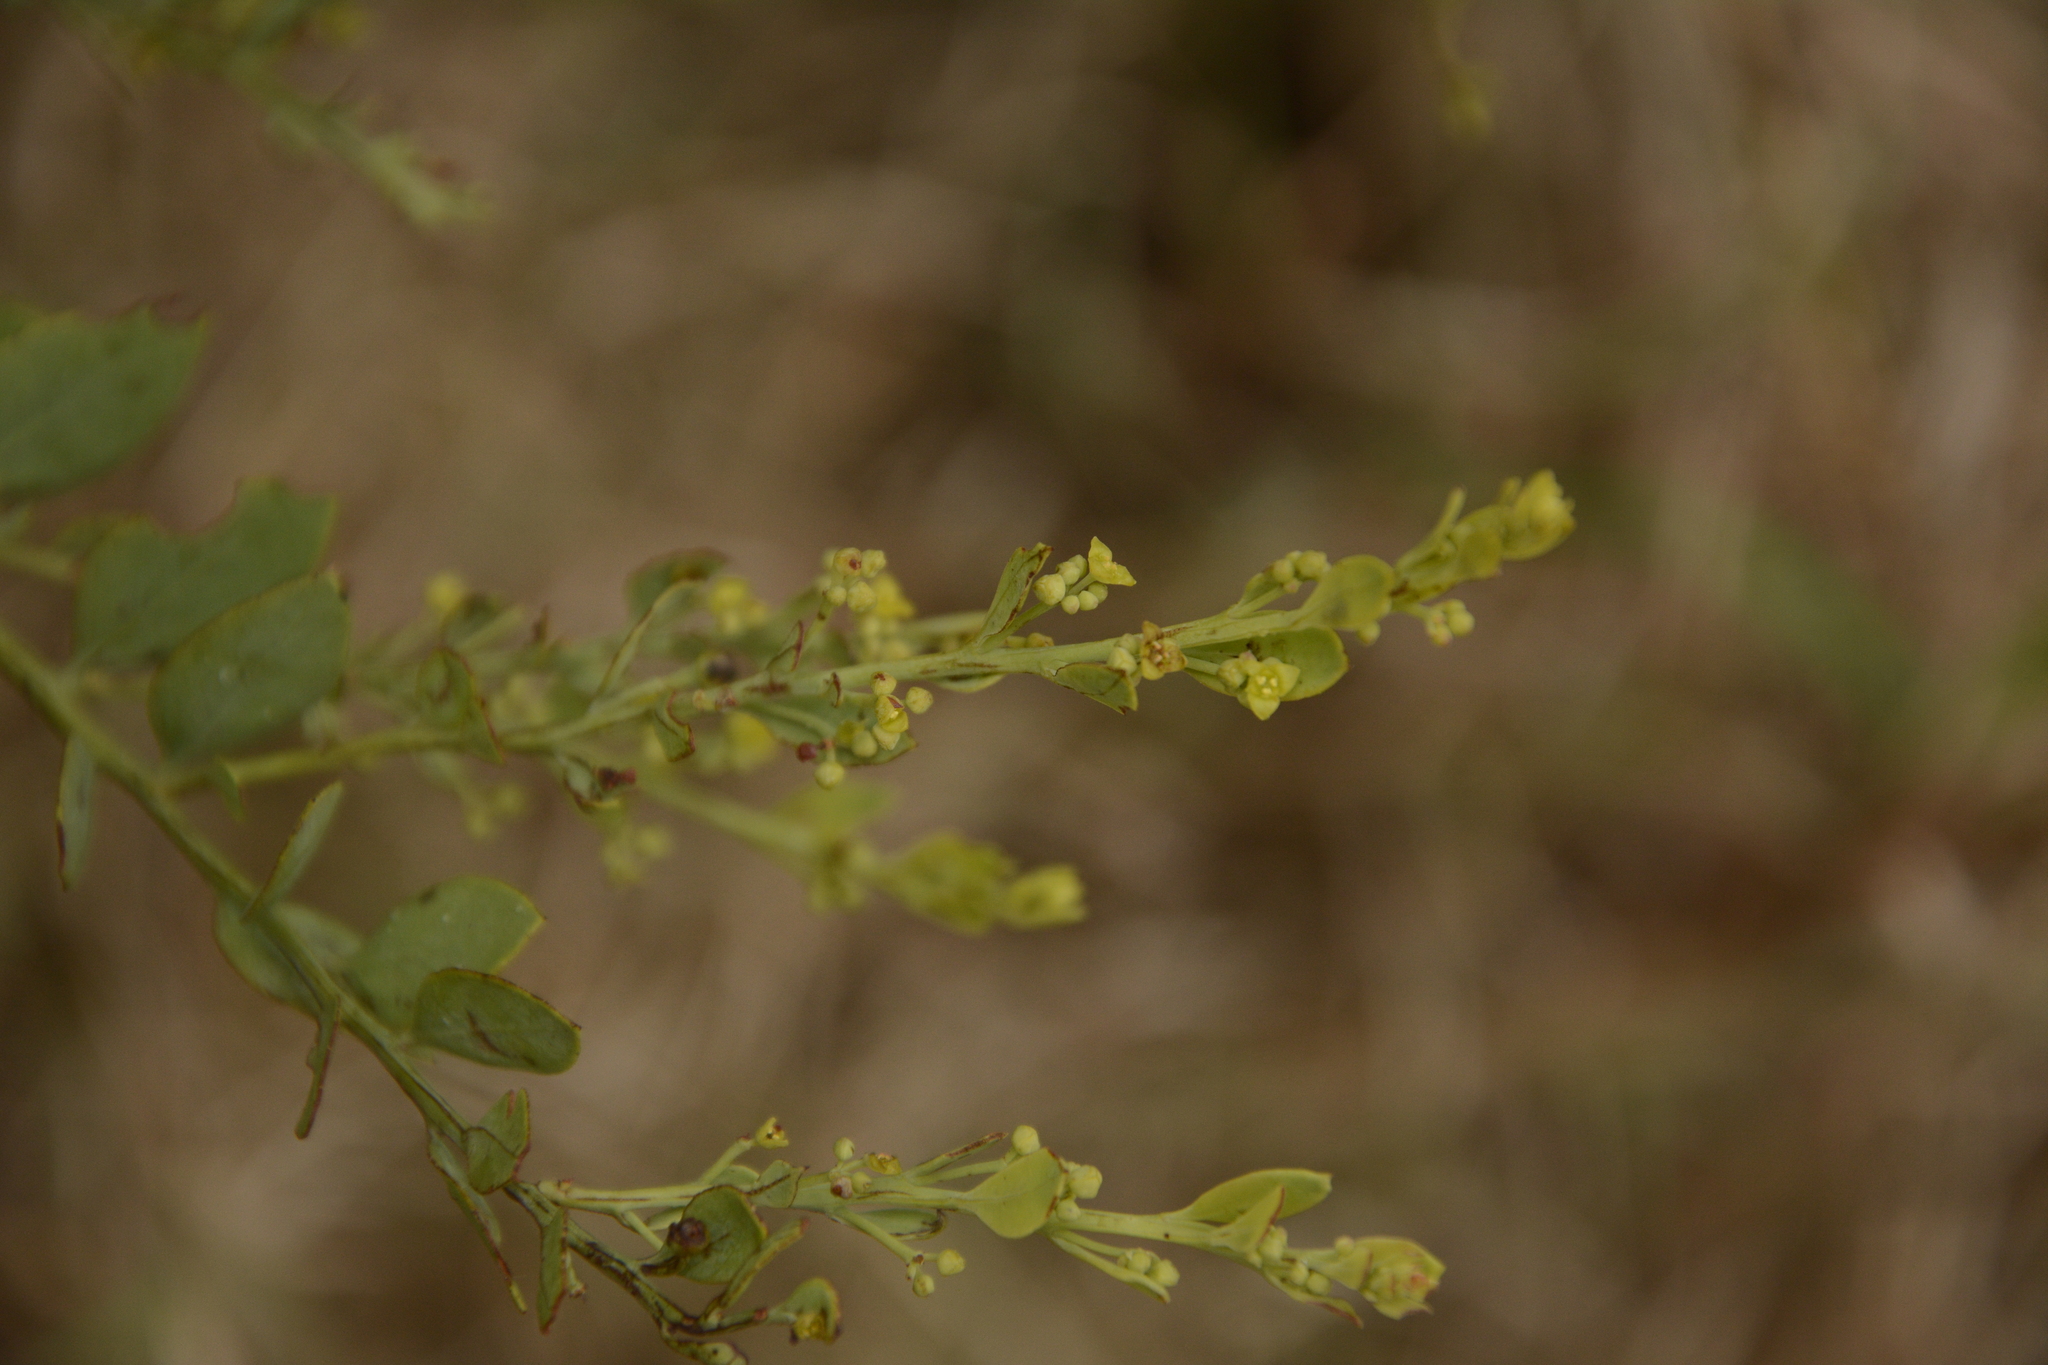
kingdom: Plantae
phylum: Tracheophyta
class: Magnoliopsida
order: Santalales
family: Santalaceae
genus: Osyris
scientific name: Osyris lanceolata
